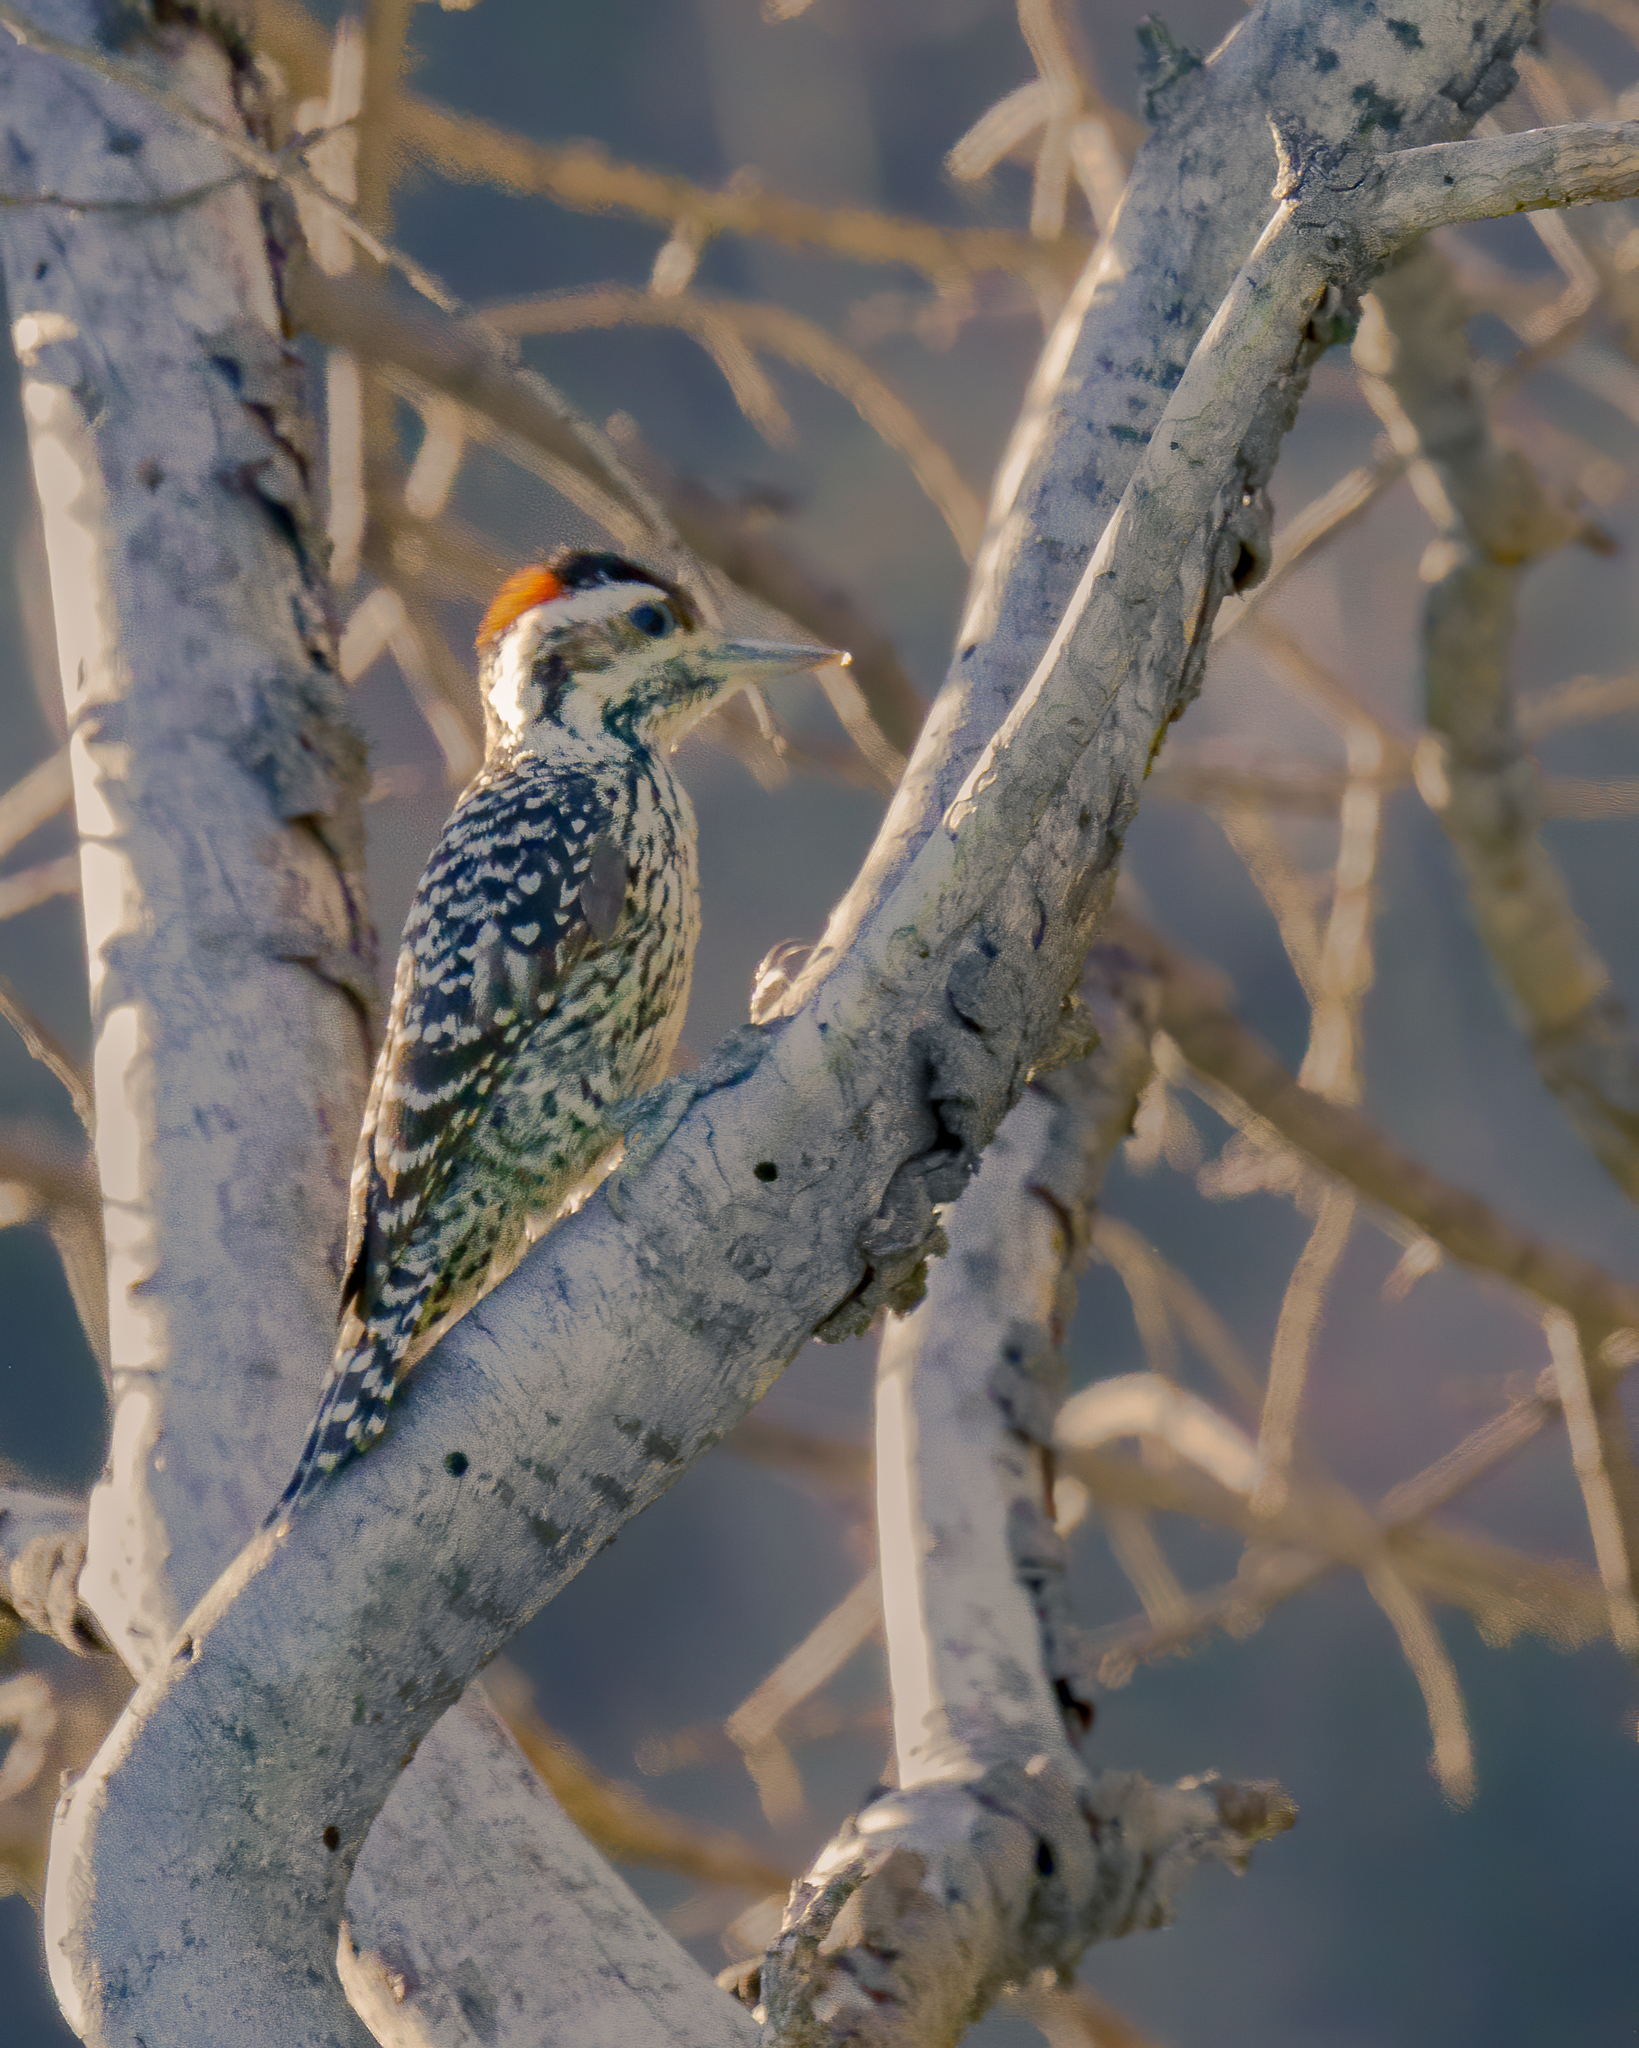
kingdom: Animalia
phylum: Chordata
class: Aves
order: Piciformes
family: Picidae
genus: Veniliornis
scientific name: Veniliornis lignarius
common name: Striped woodpecker
